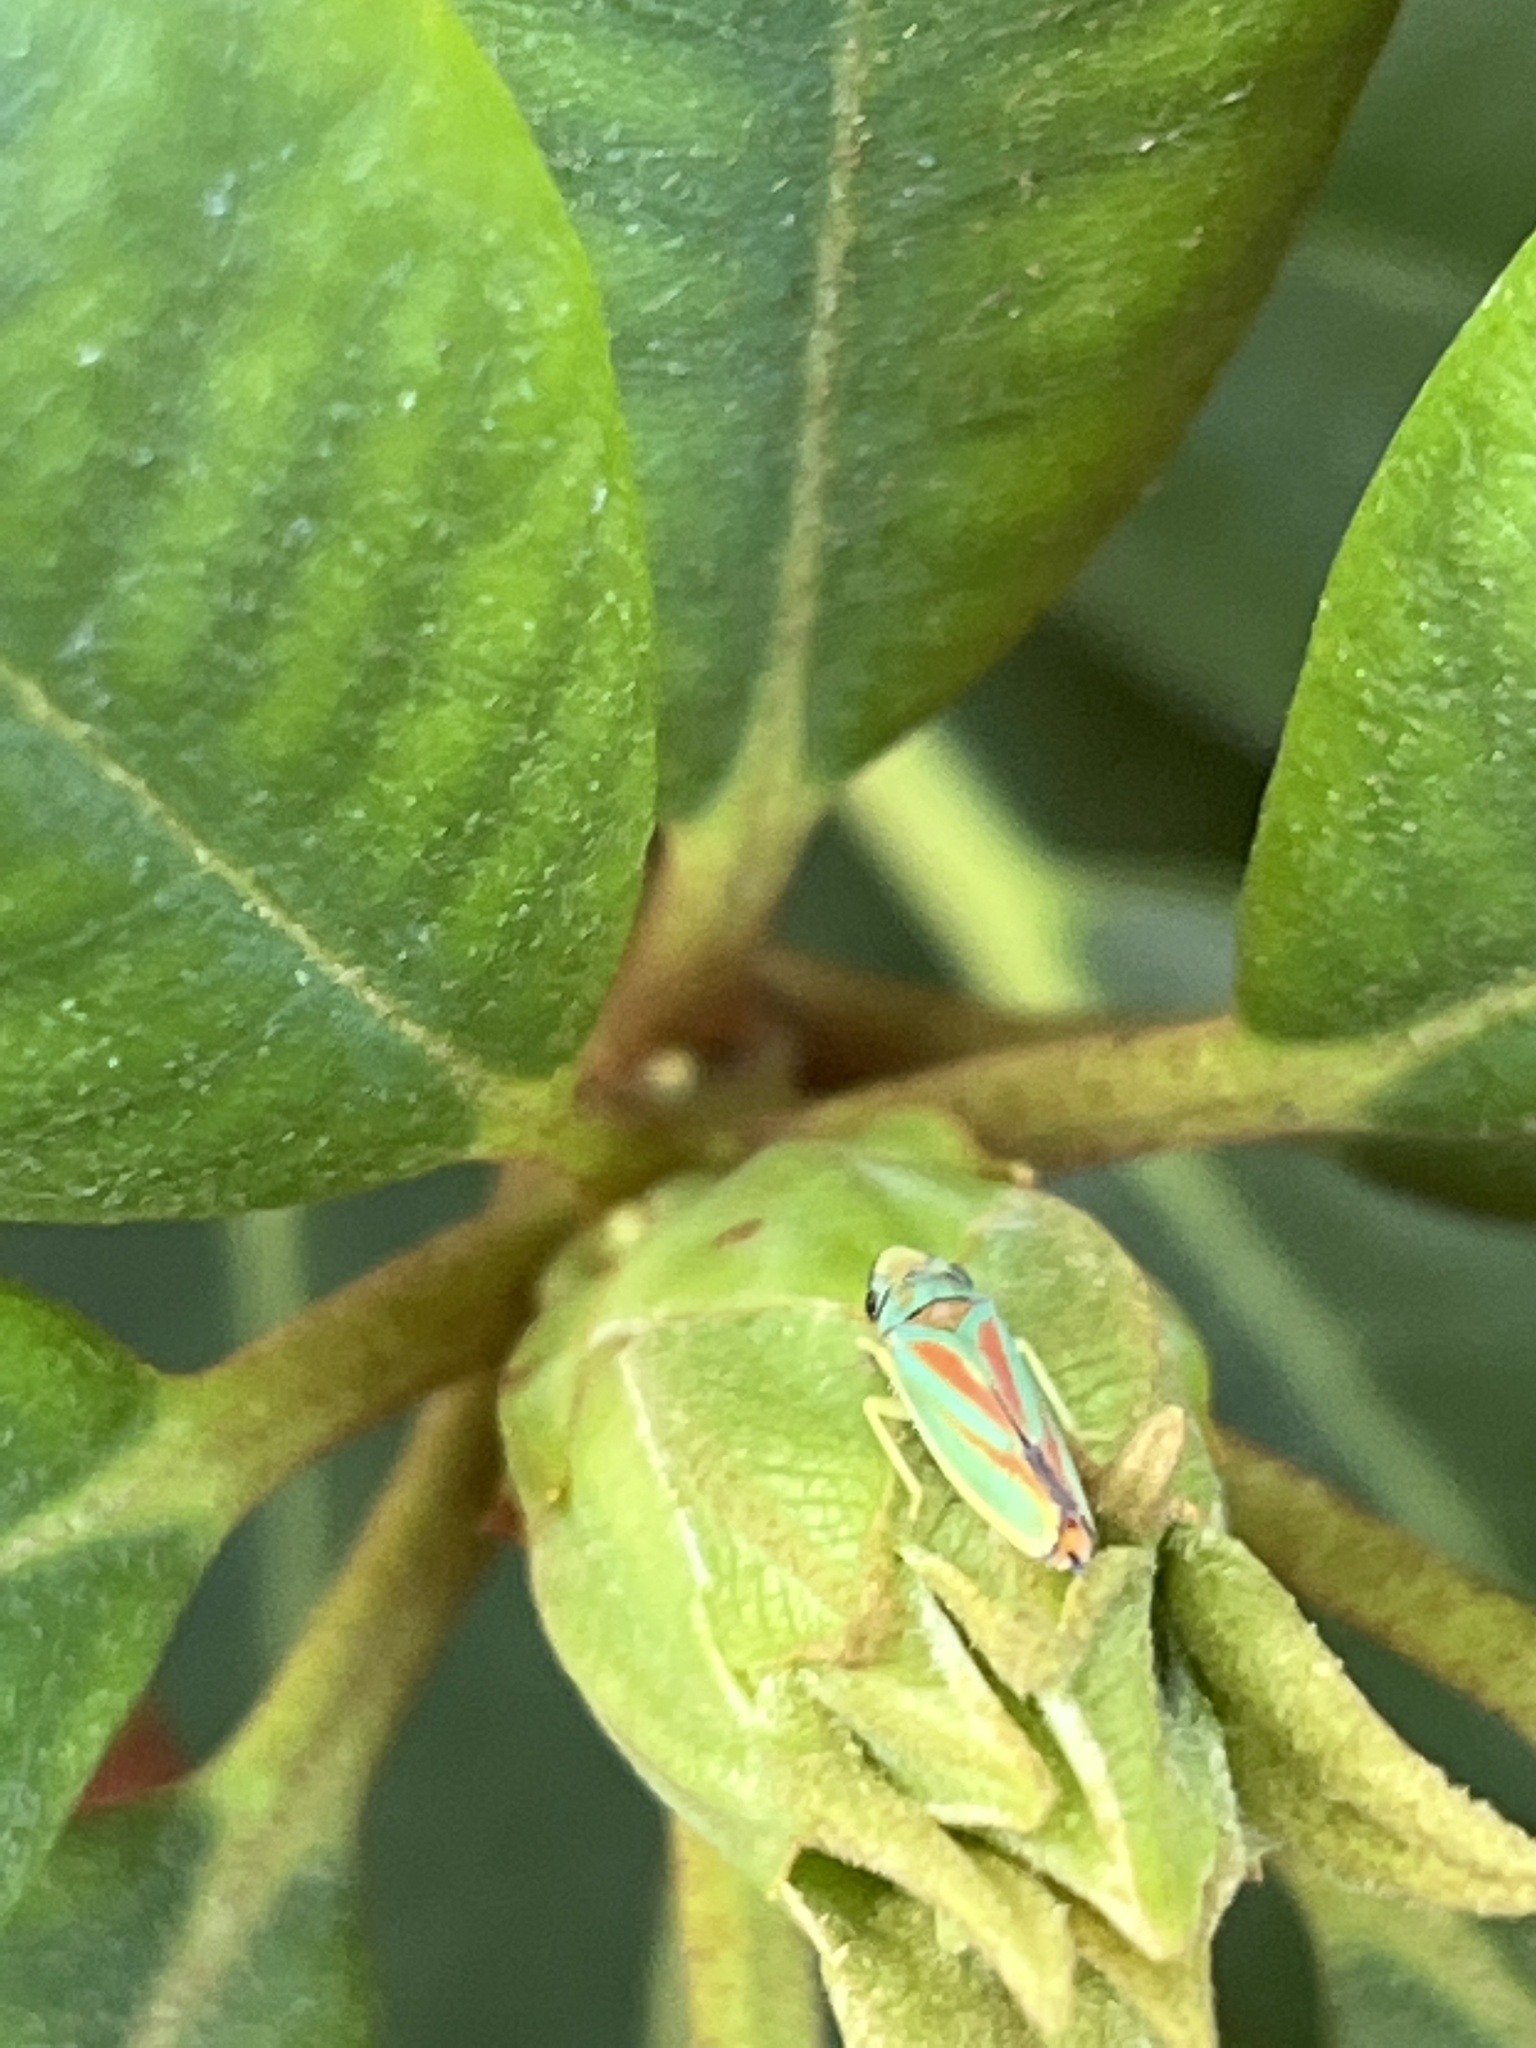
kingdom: Animalia
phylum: Arthropoda
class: Insecta
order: Hemiptera
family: Cicadellidae
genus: Graphocephala
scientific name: Graphocephala fennahi
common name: Rhododendron leafhopper
